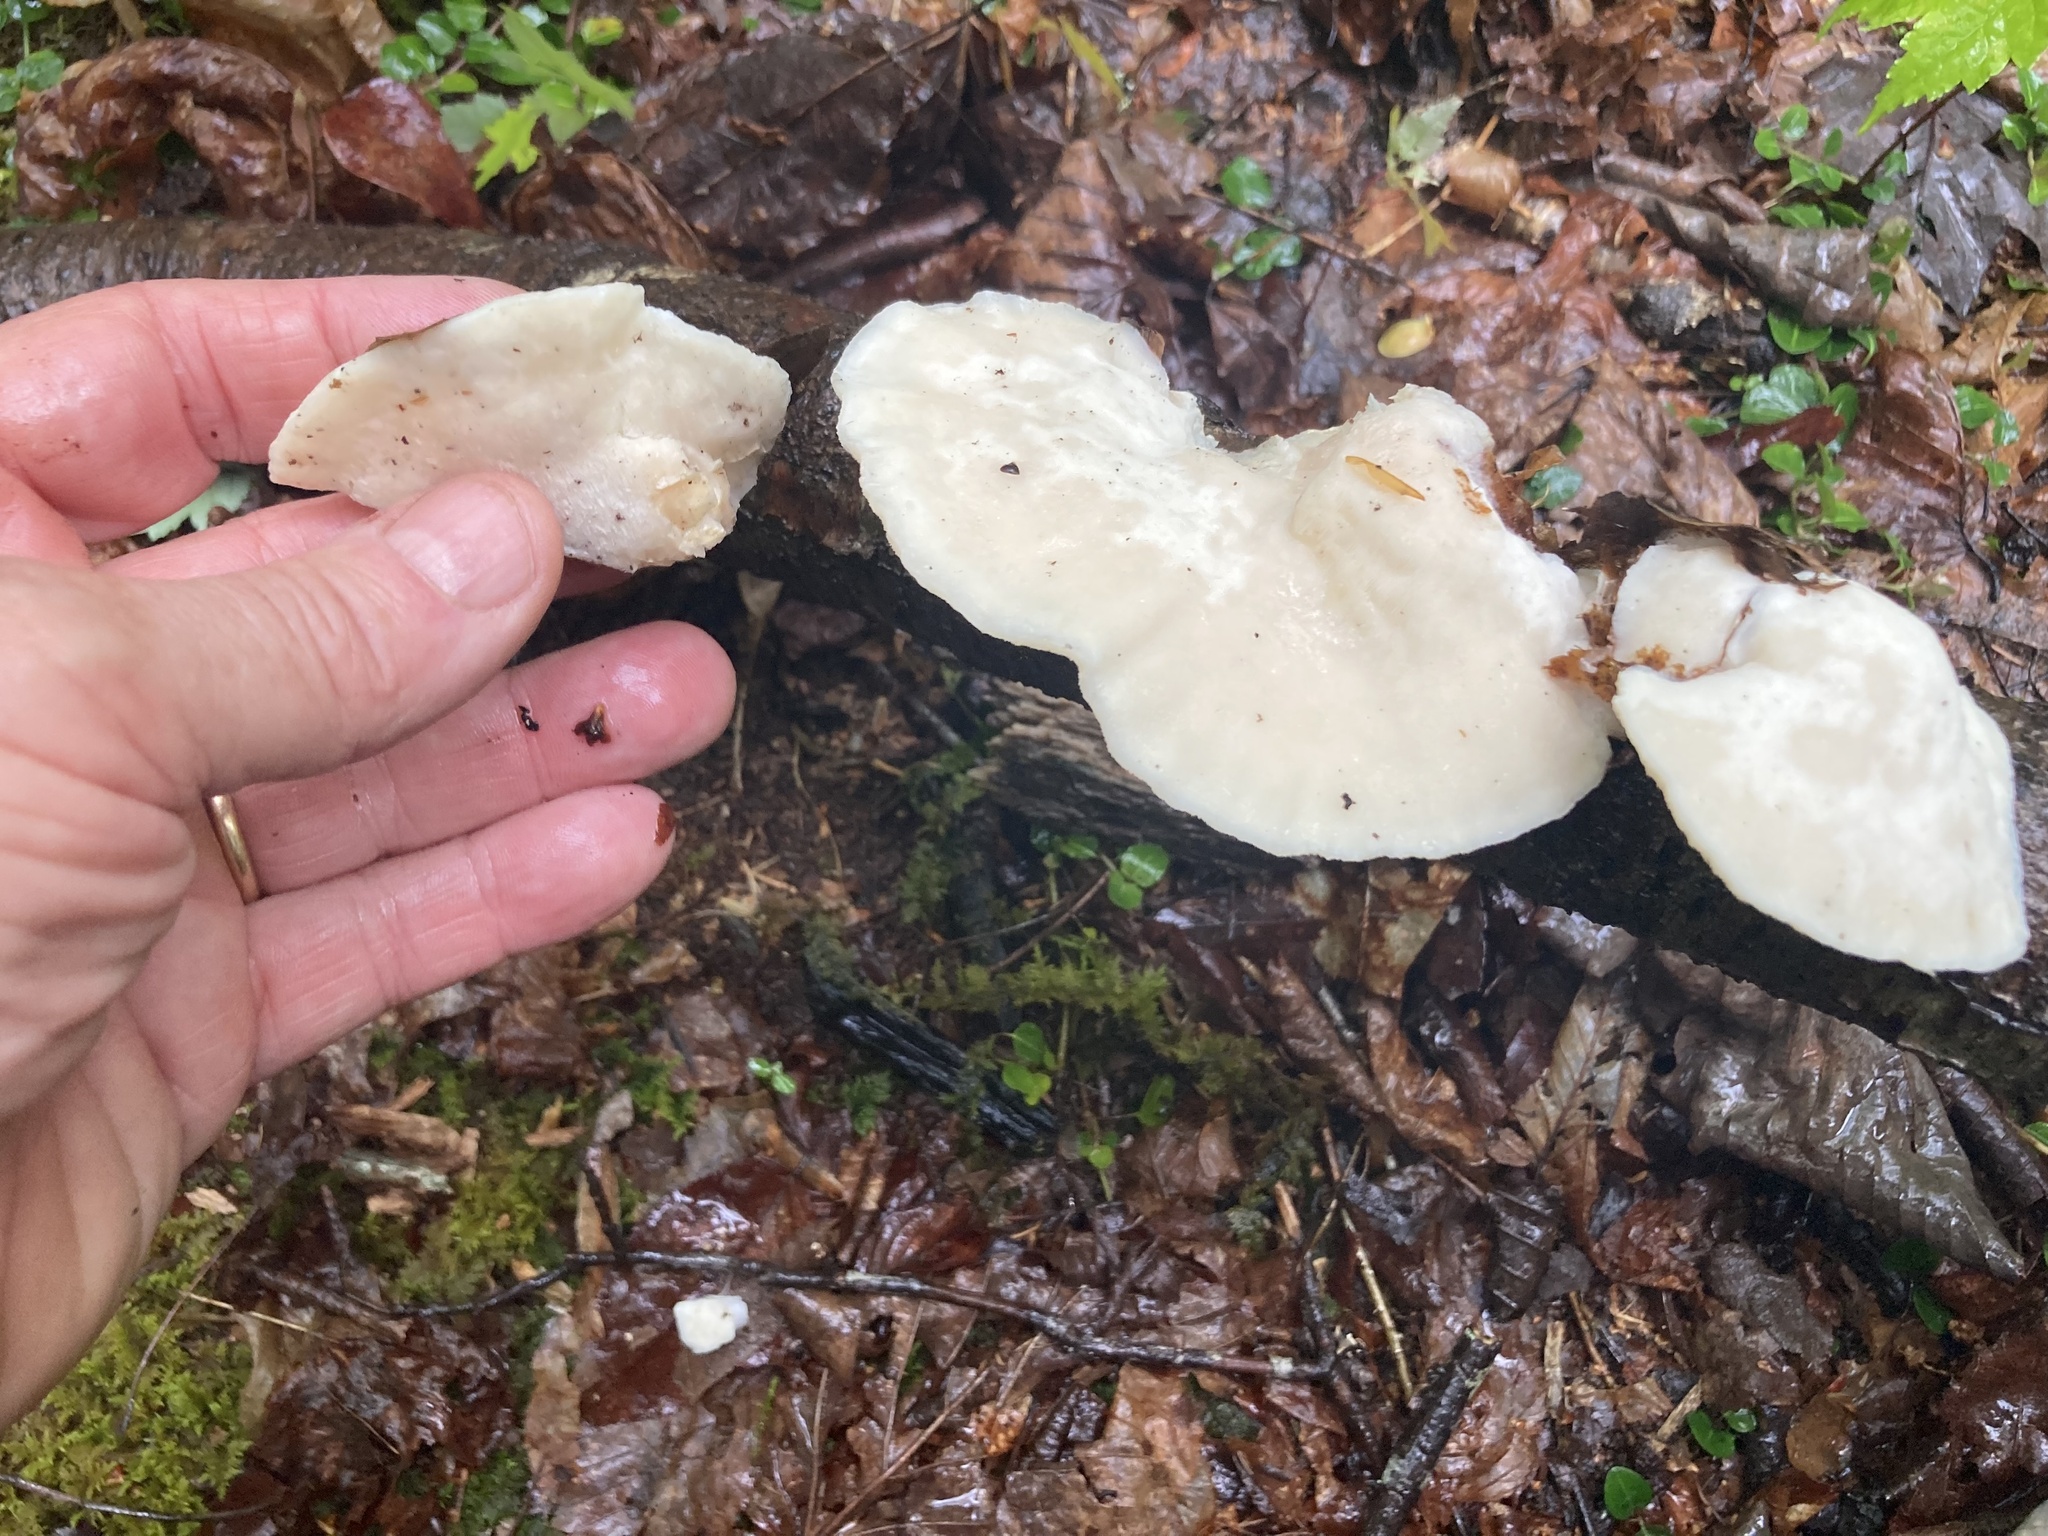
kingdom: Fungi
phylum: Basidiomycota
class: Agaricomycetes
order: Polyporales
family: Incrustoporiaceae
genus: Tyromyces
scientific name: Tyromyces chioneus
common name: White cheese polypore
